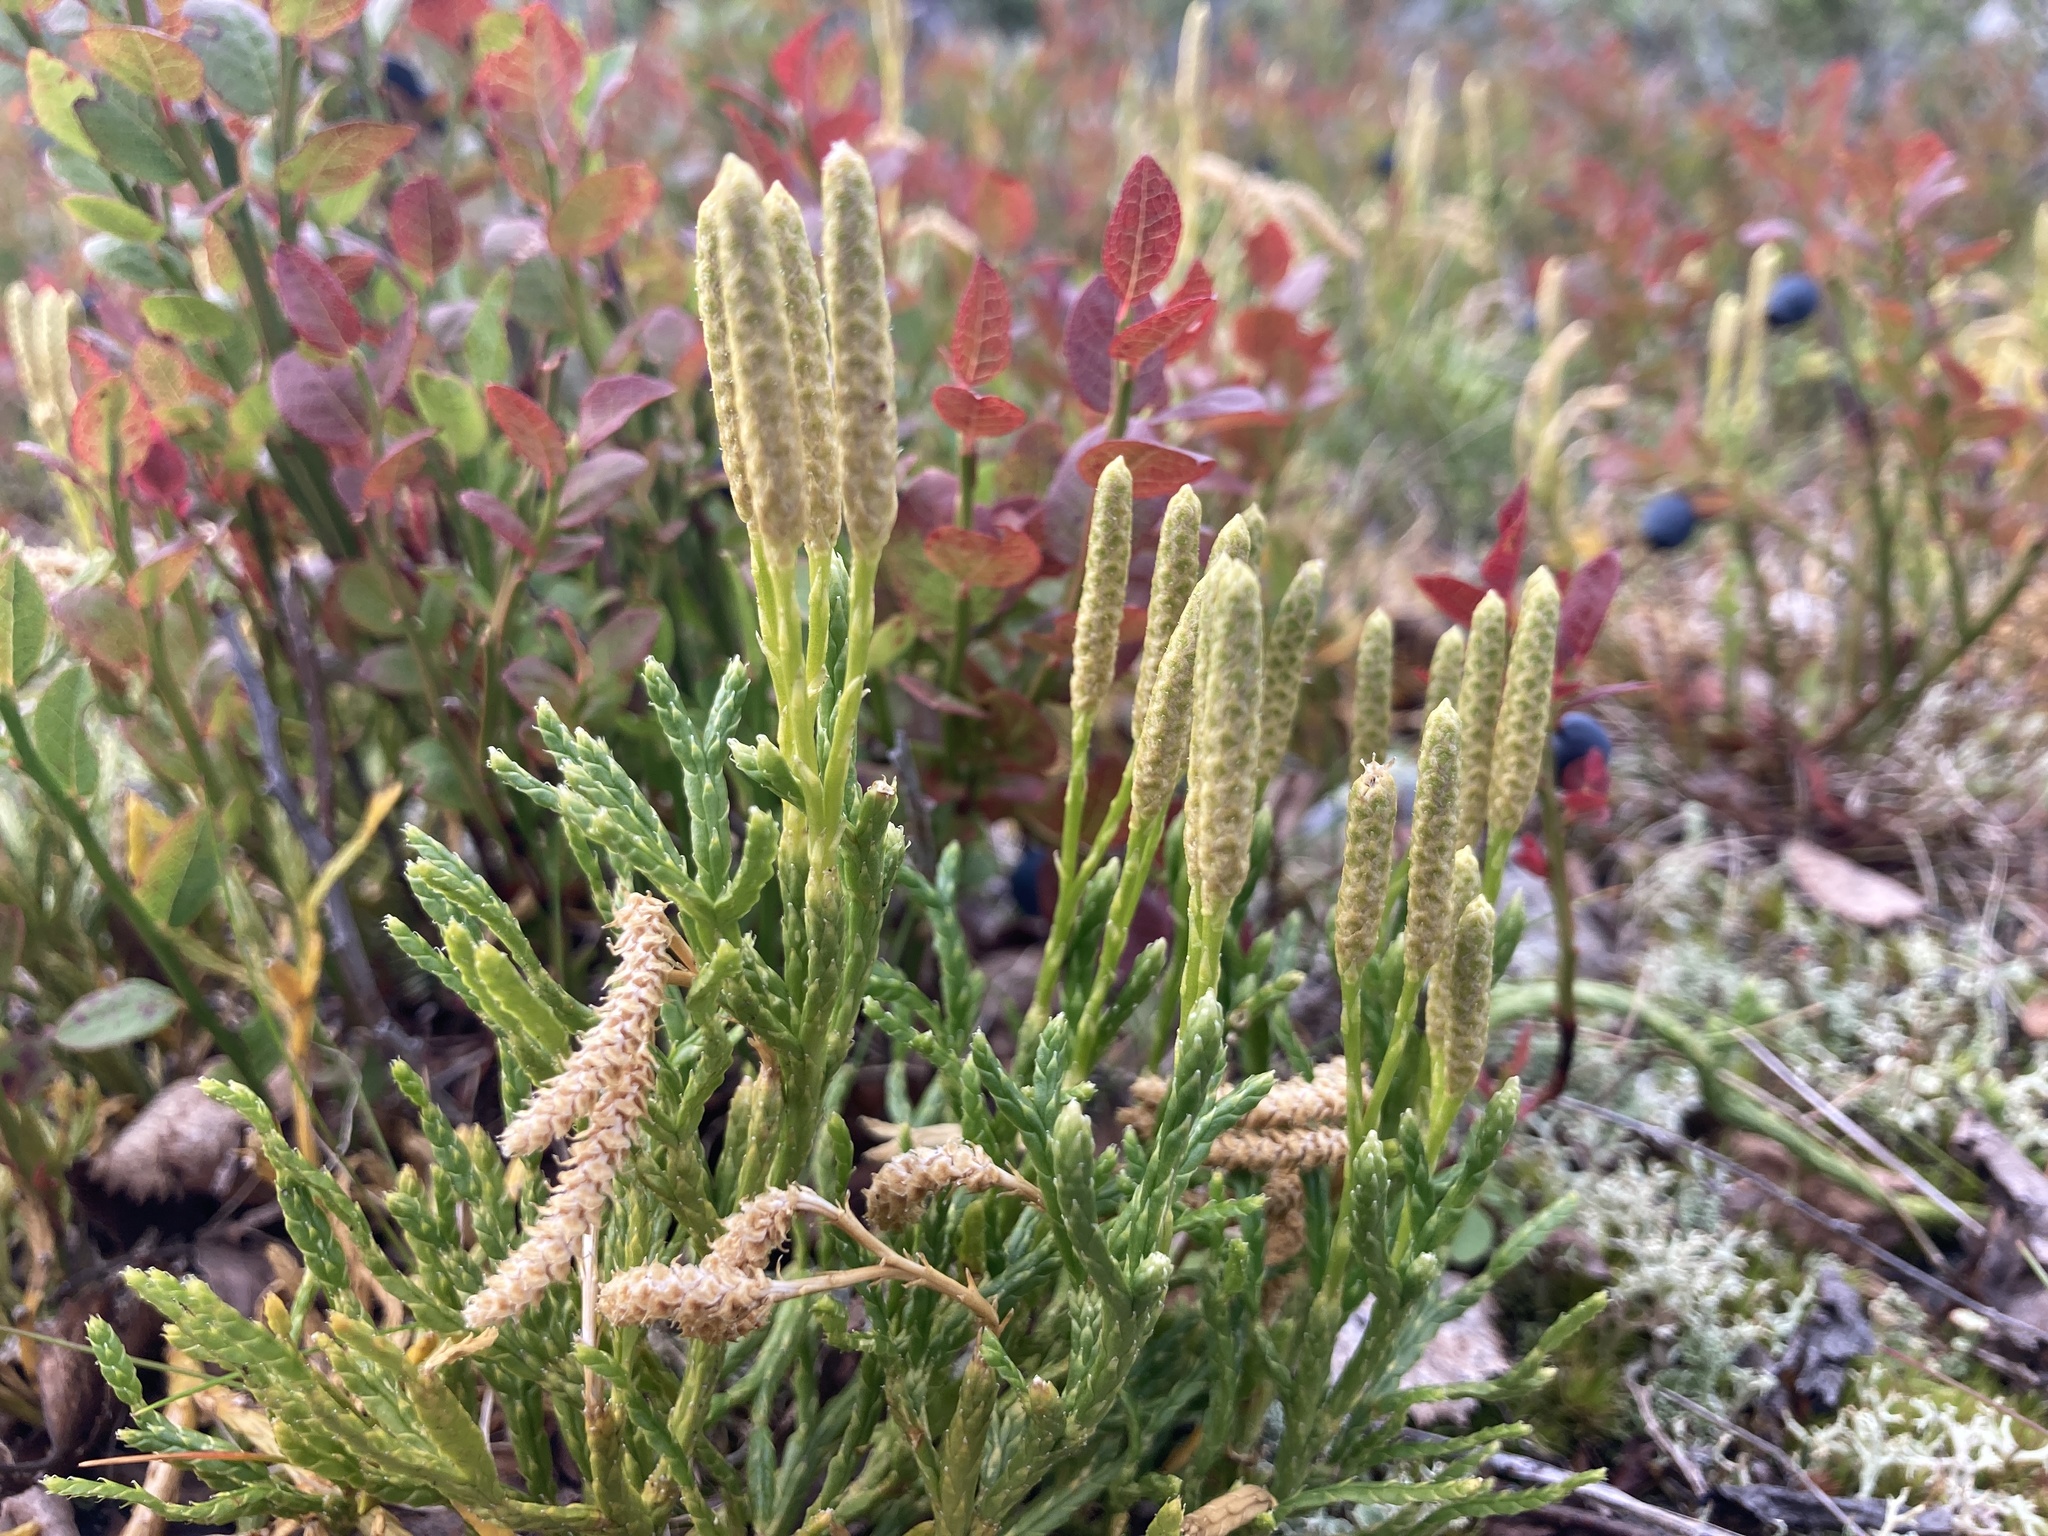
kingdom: Plantae
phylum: Tracheophyta
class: Lycopodiopsida
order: Lycopodiales
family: Lycopodiaceae
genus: Diphasiastrum
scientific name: Diphasiastrum alpinum
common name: Alpine clubmoss
